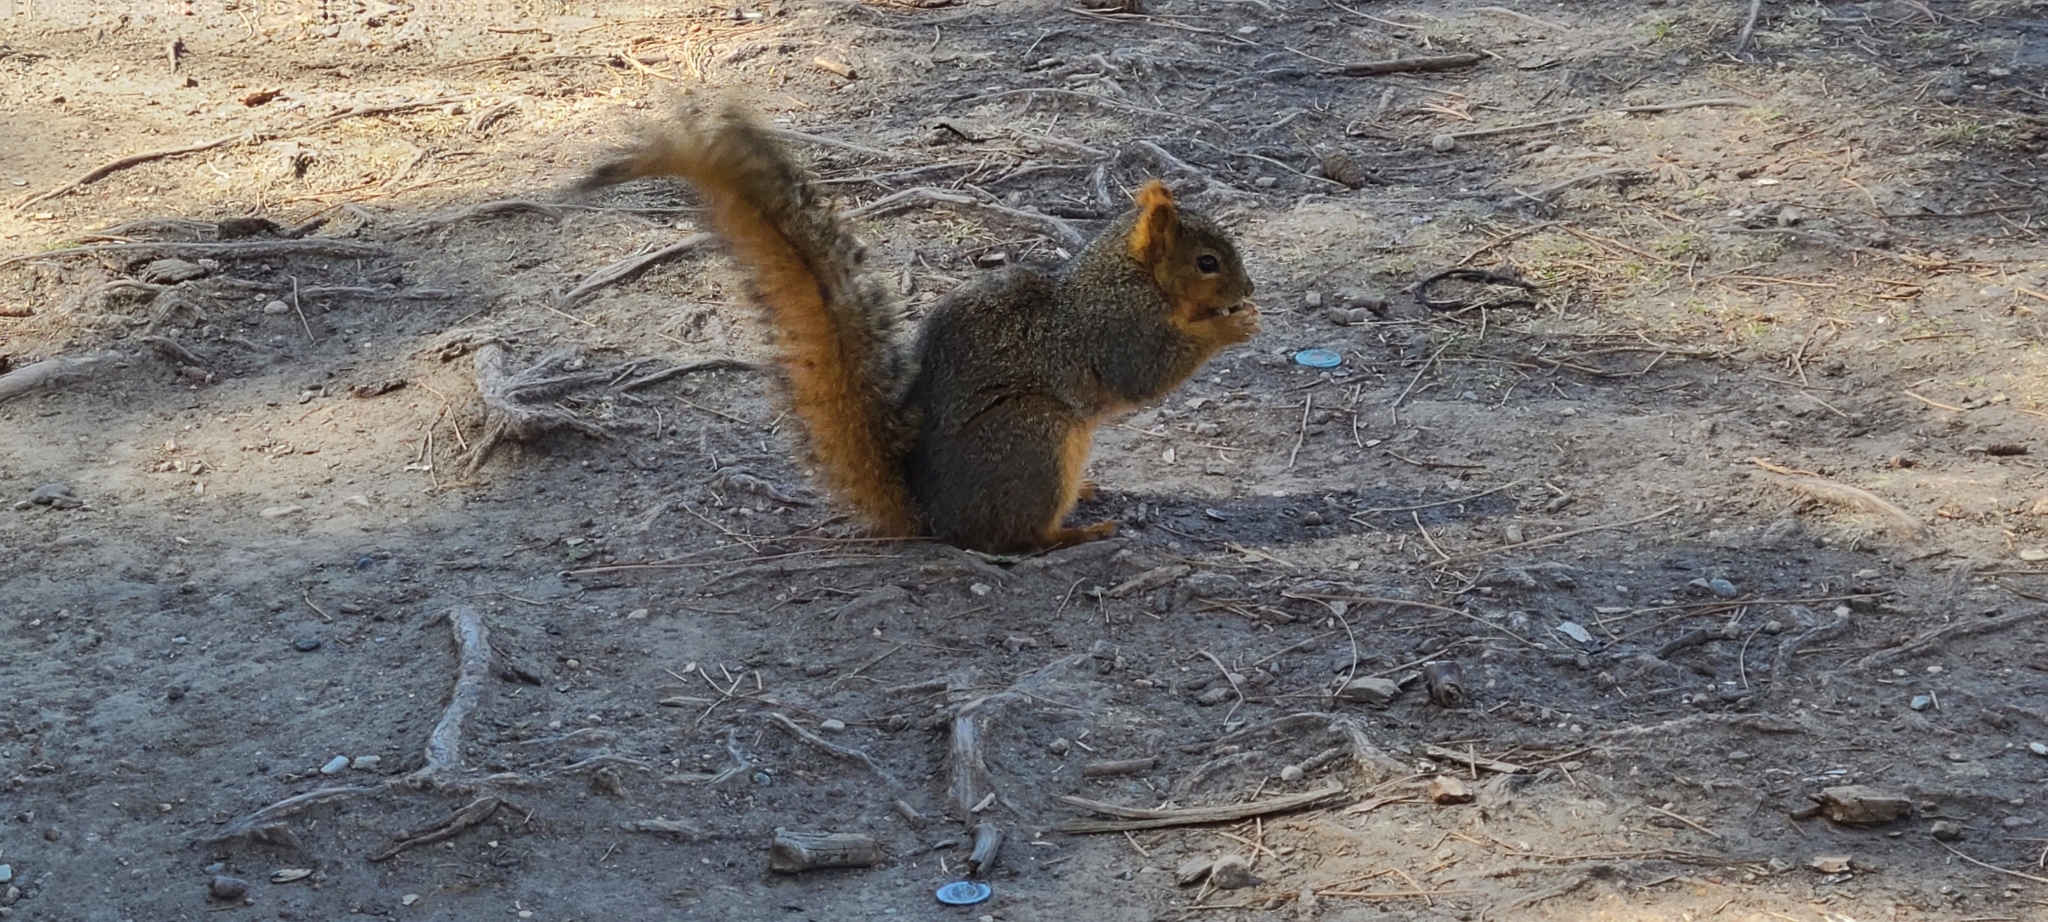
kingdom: Animalia
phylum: Chordata
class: Mammalia
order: Rodentia
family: Sciuridae
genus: Sciurus
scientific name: Sciurus niger
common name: Fox squirrel
